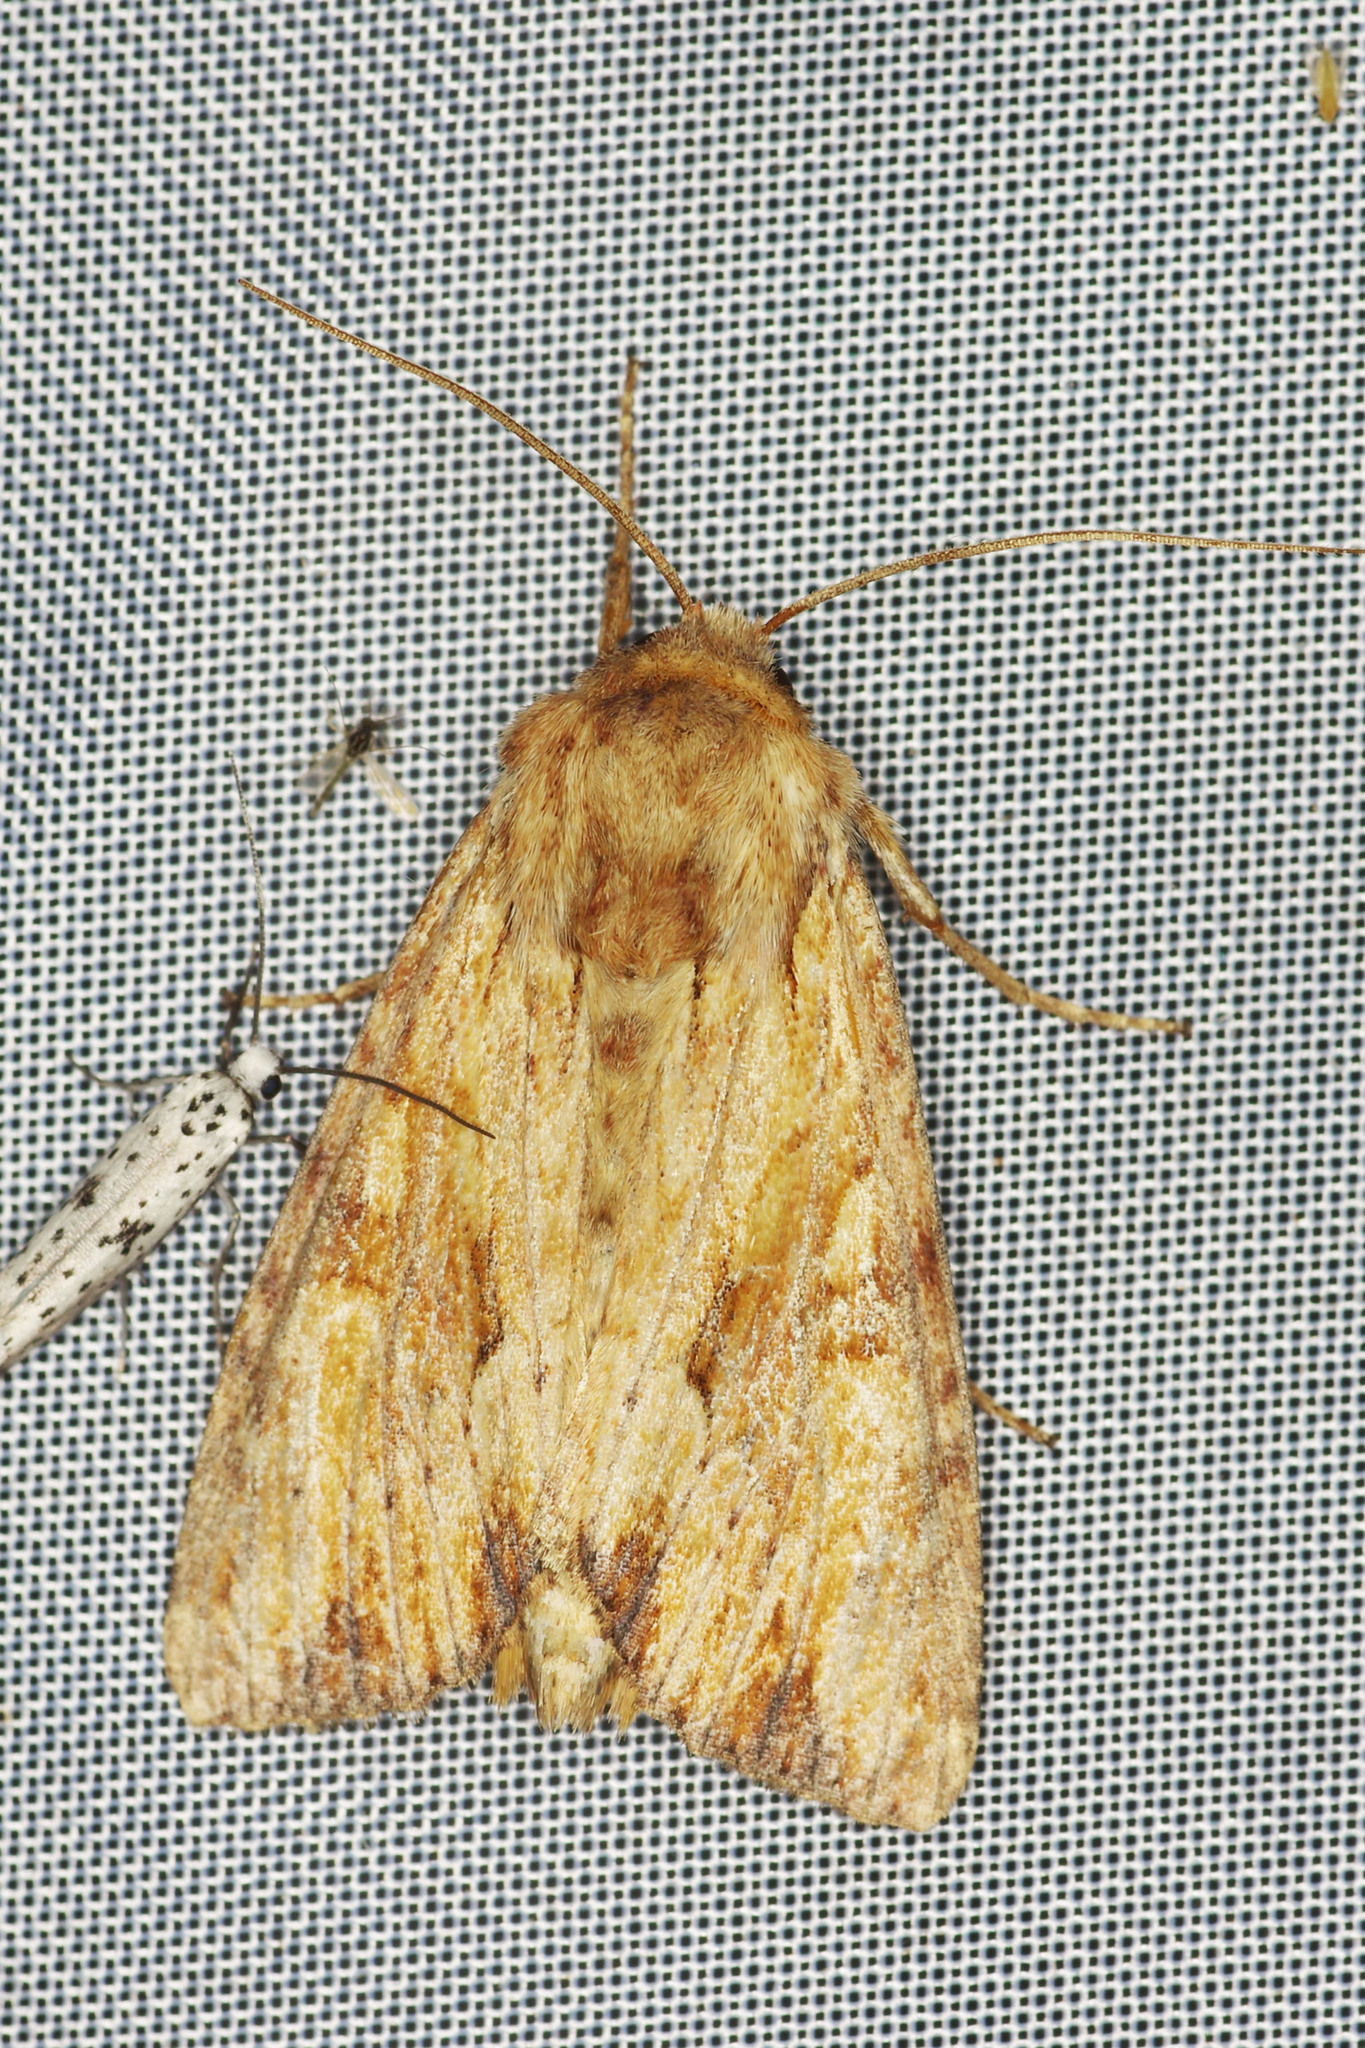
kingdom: Animalia
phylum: Arthropoda
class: Insecta
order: Lepidoptera
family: Noctuidae
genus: Apamea
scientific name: Apamea sublustris
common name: Reddish light arches
